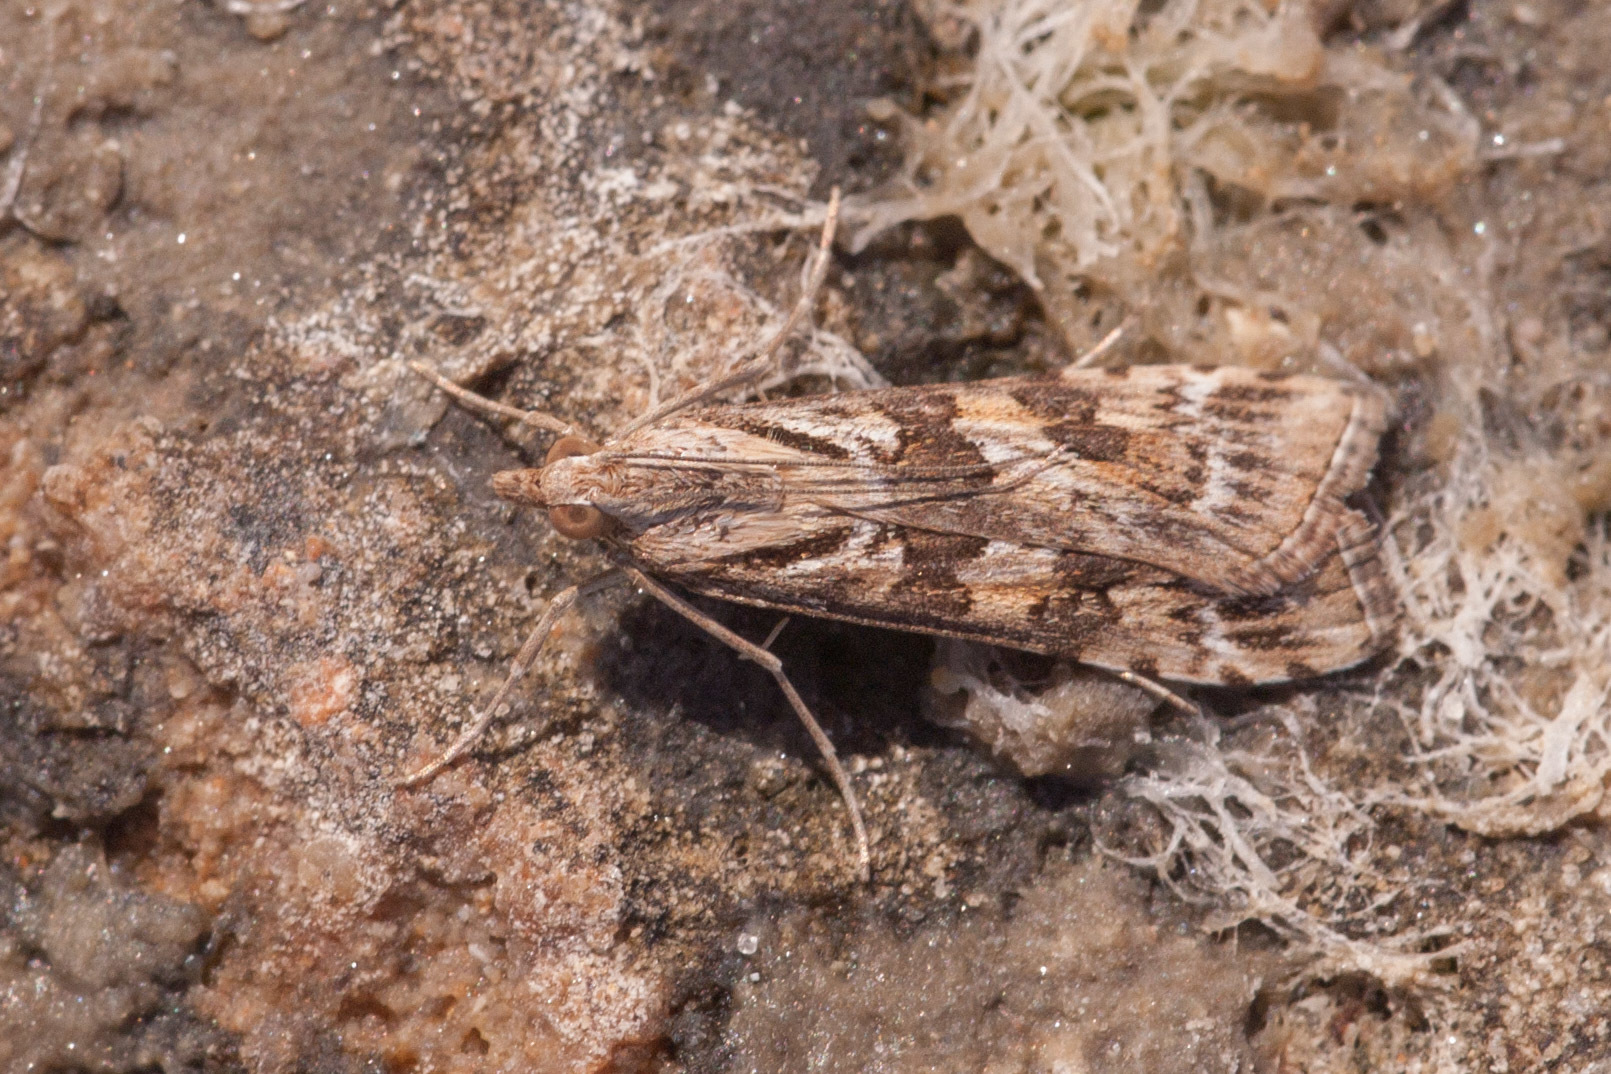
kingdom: Animalia
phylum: Arthropoda
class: Insecta
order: Lepidoptera
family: Crambidae
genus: Nomophila
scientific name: Nomophila corticalis
